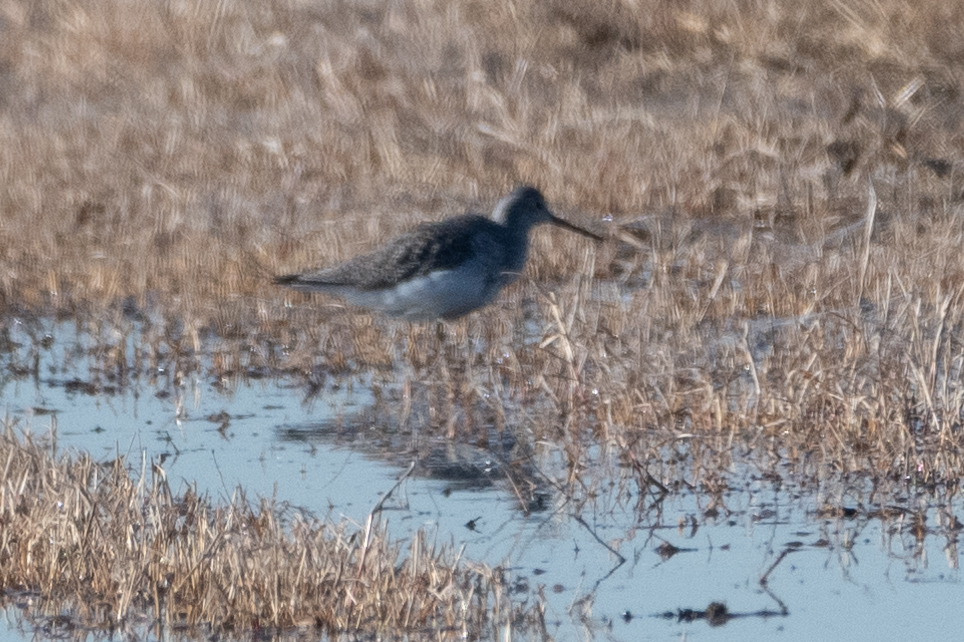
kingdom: Animalia
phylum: Chordata
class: Aves
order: Charadriiformes
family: Scolopacidae
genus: Tringa
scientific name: Tringa melanoleuca
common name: Greater yellowlegs
